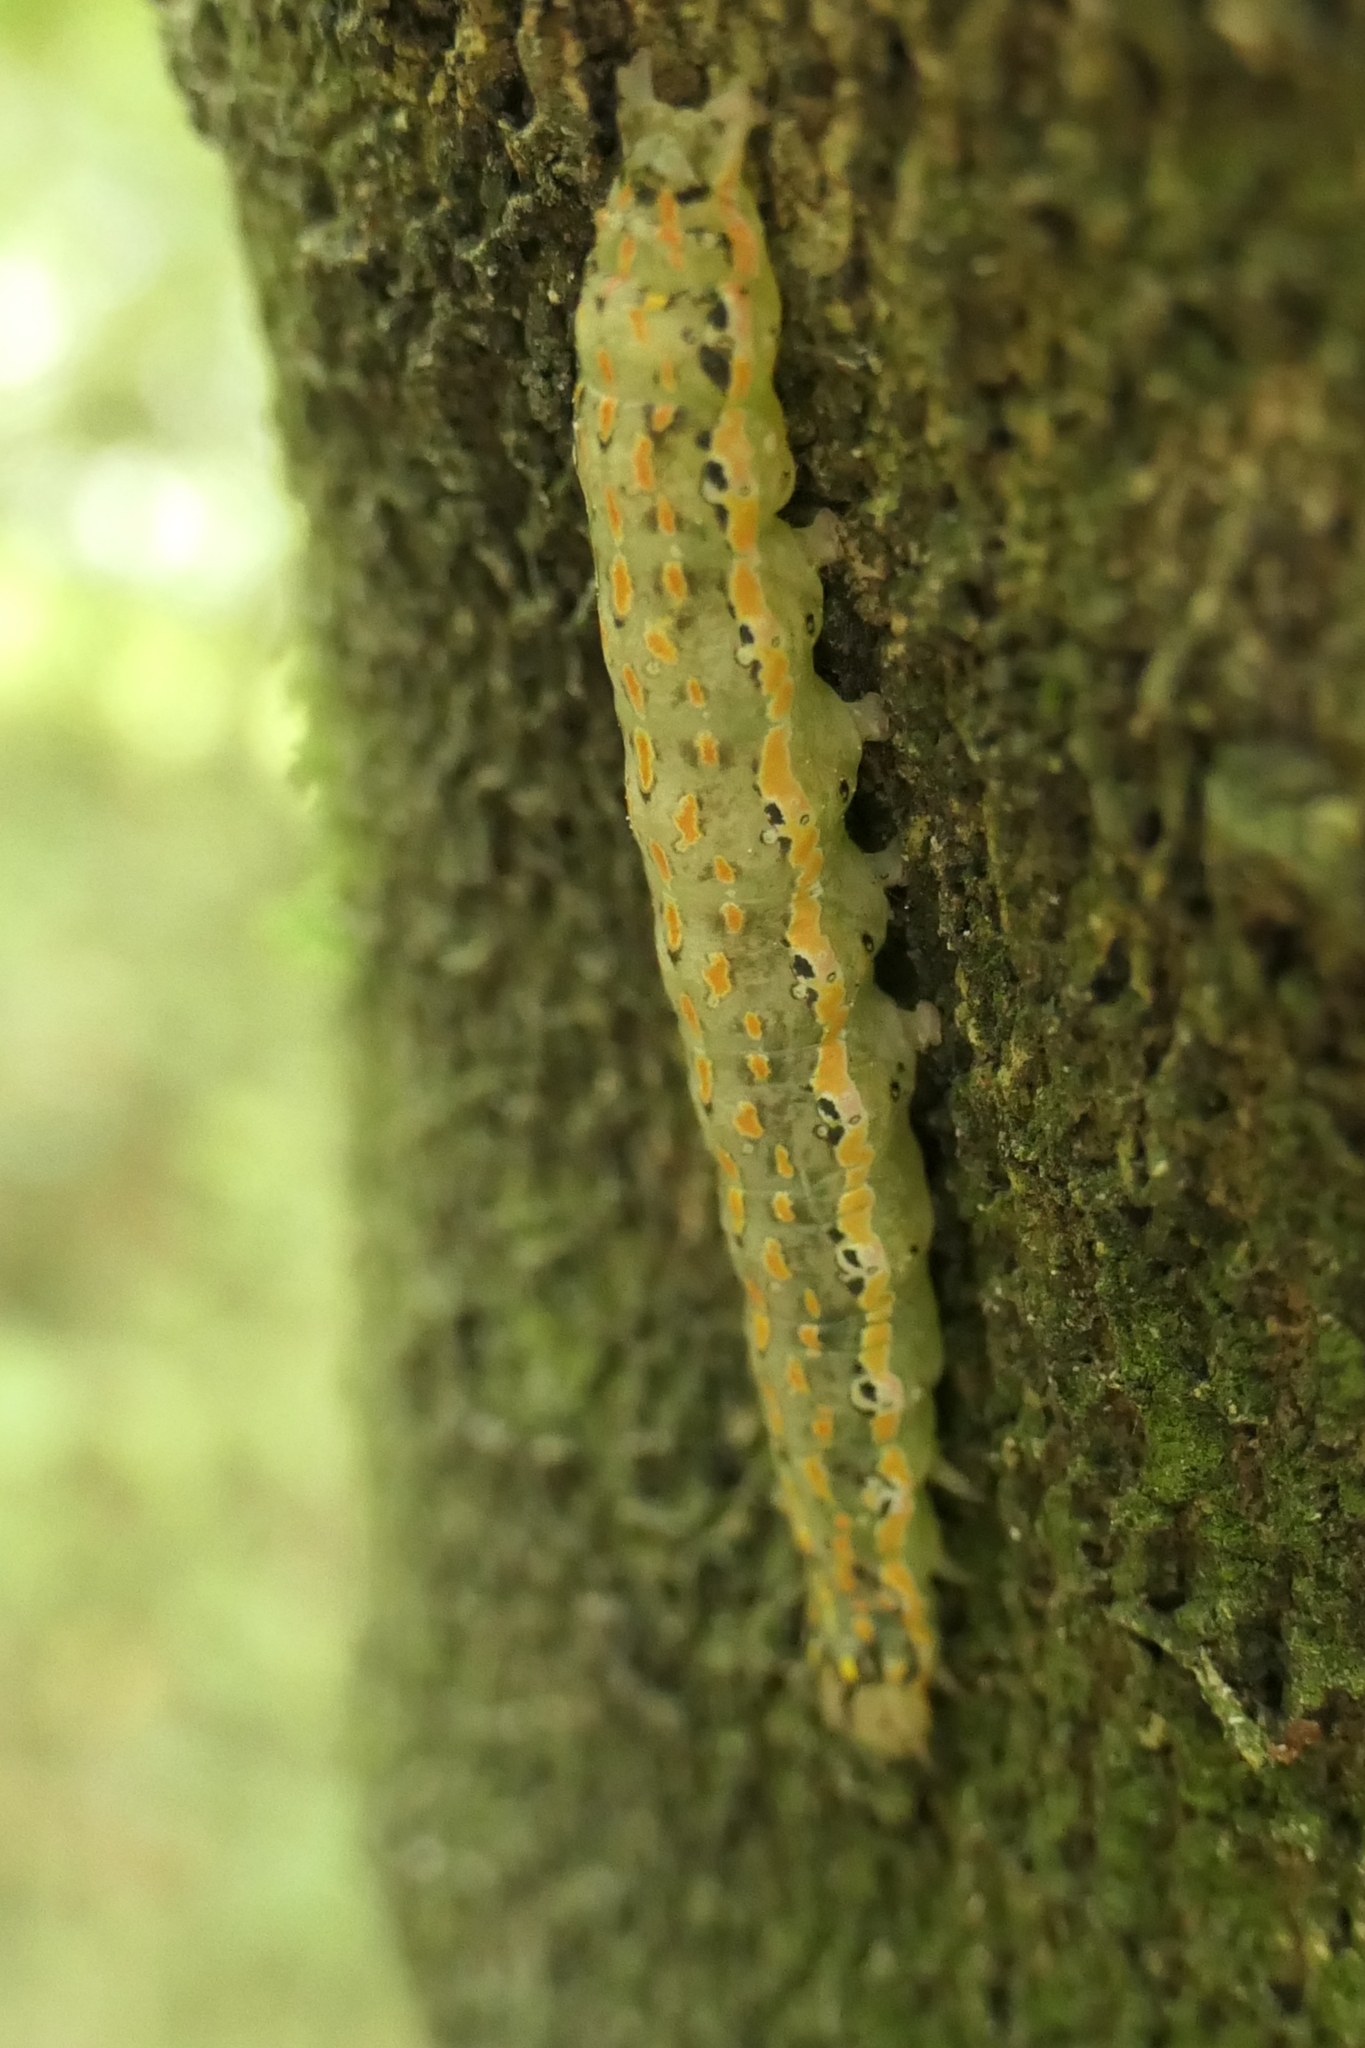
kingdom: Animalia
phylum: Arthropoda
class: Insecta
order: Lepidoptera
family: Noctuidae
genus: Austramathes
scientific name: Austramathes purpurea
